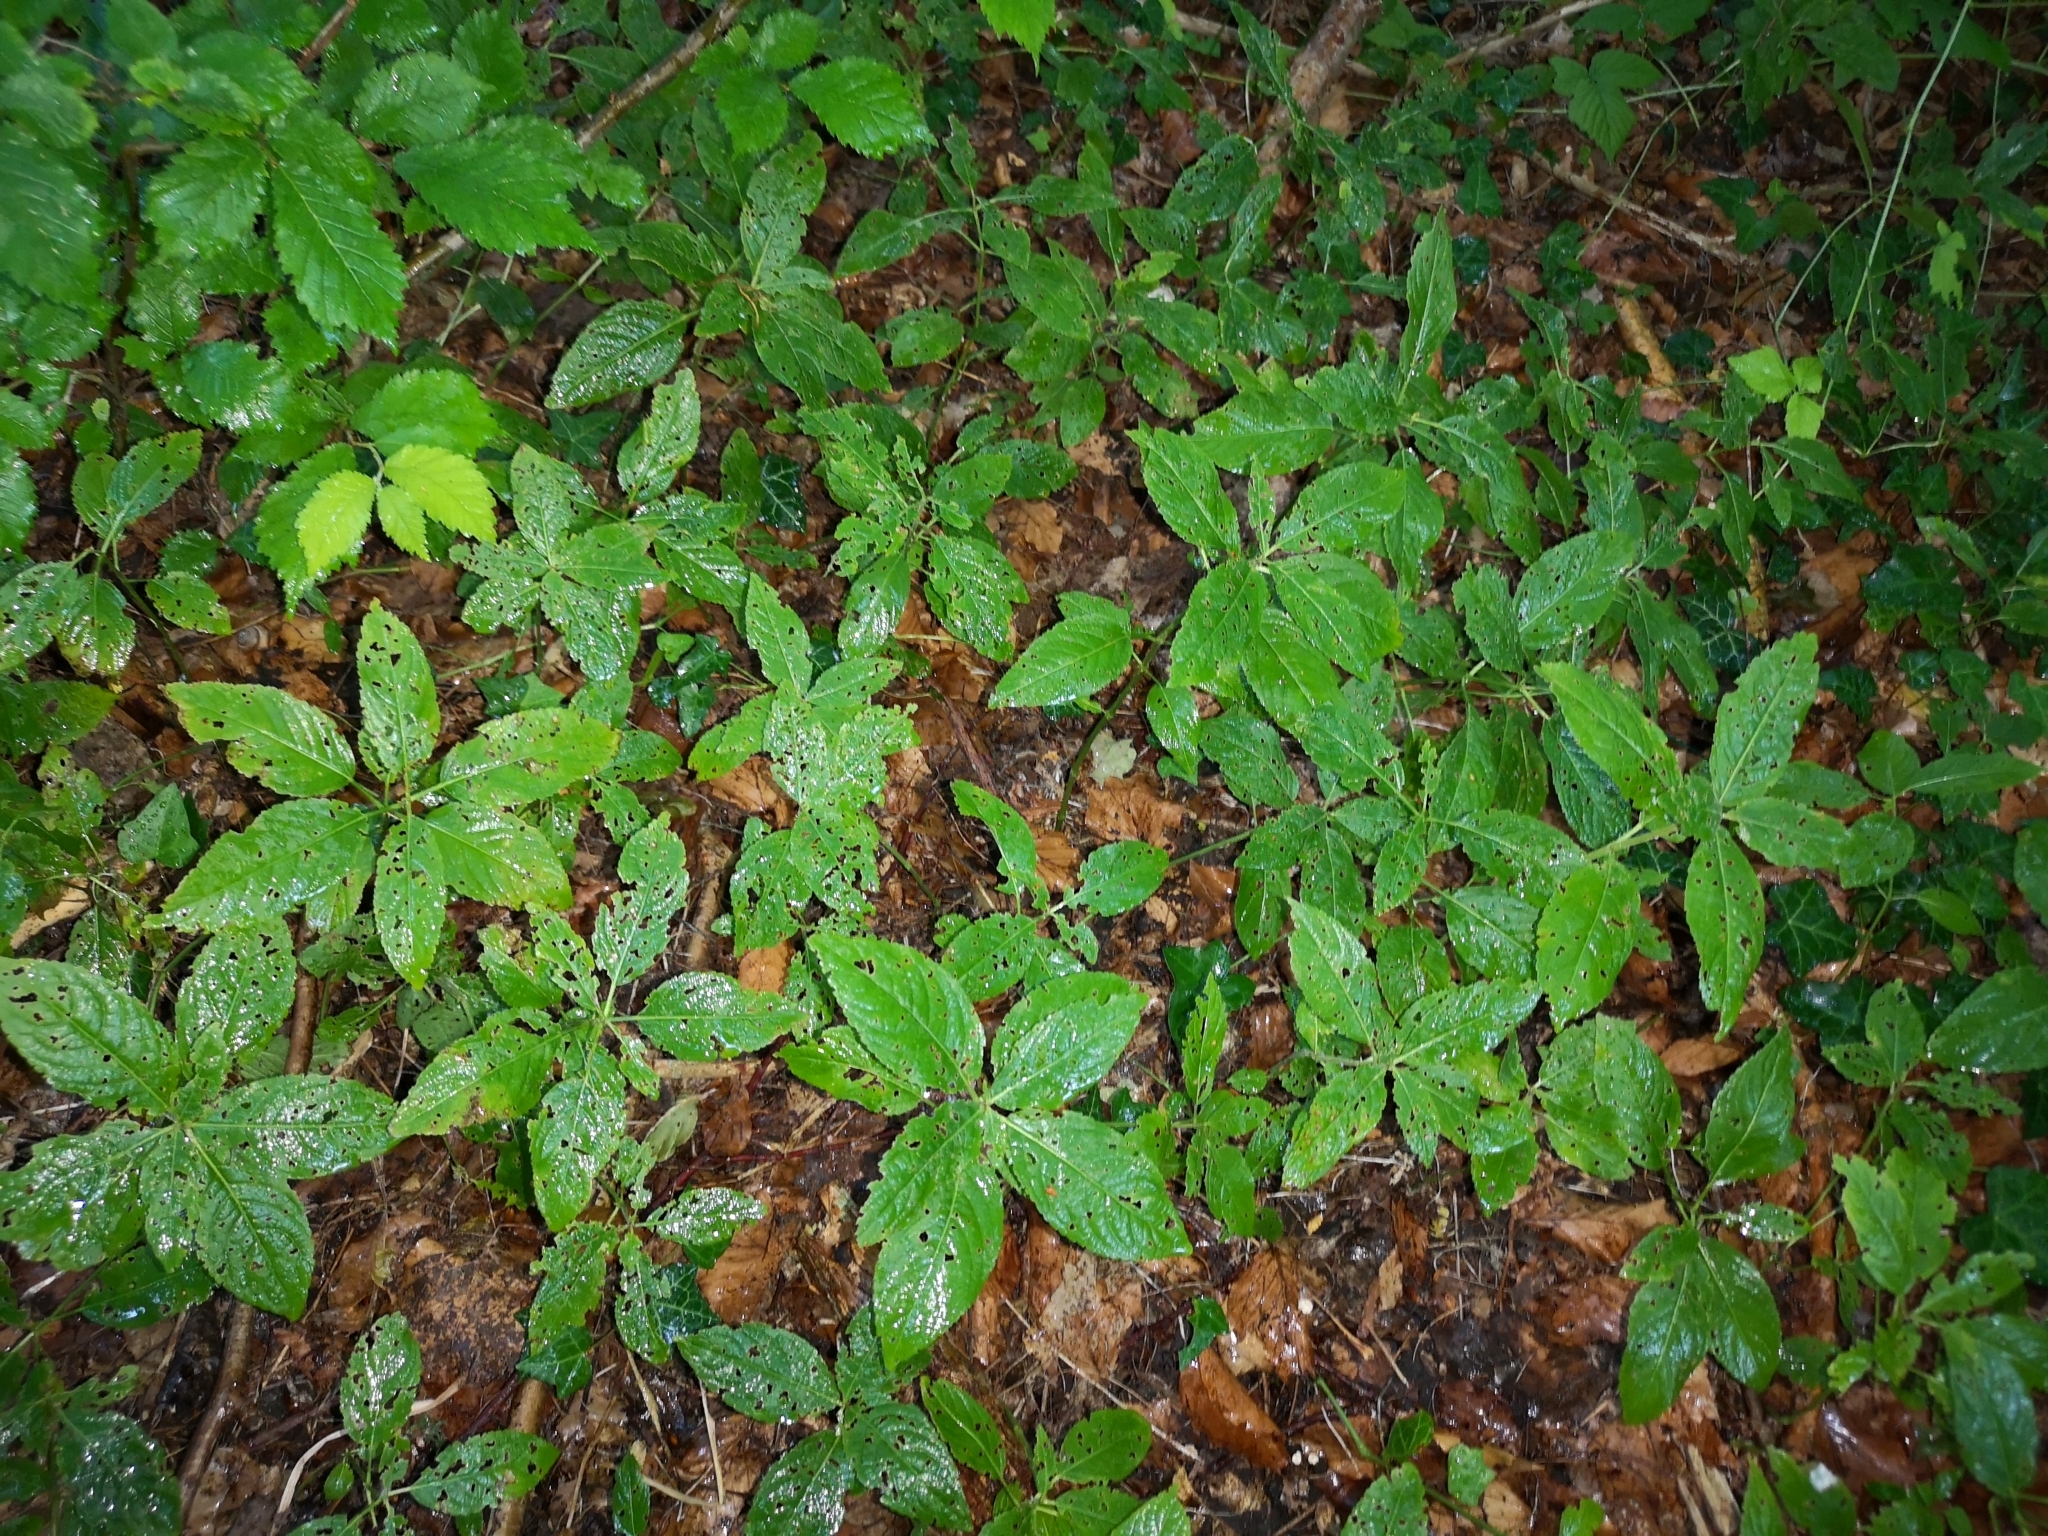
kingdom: Plantae
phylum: Tracheophyta
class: Magnoliopsida
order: Malpighiales
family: Euphorbiaceae
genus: Mercurialis
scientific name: Mercurialis perennis
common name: Dog mercury
